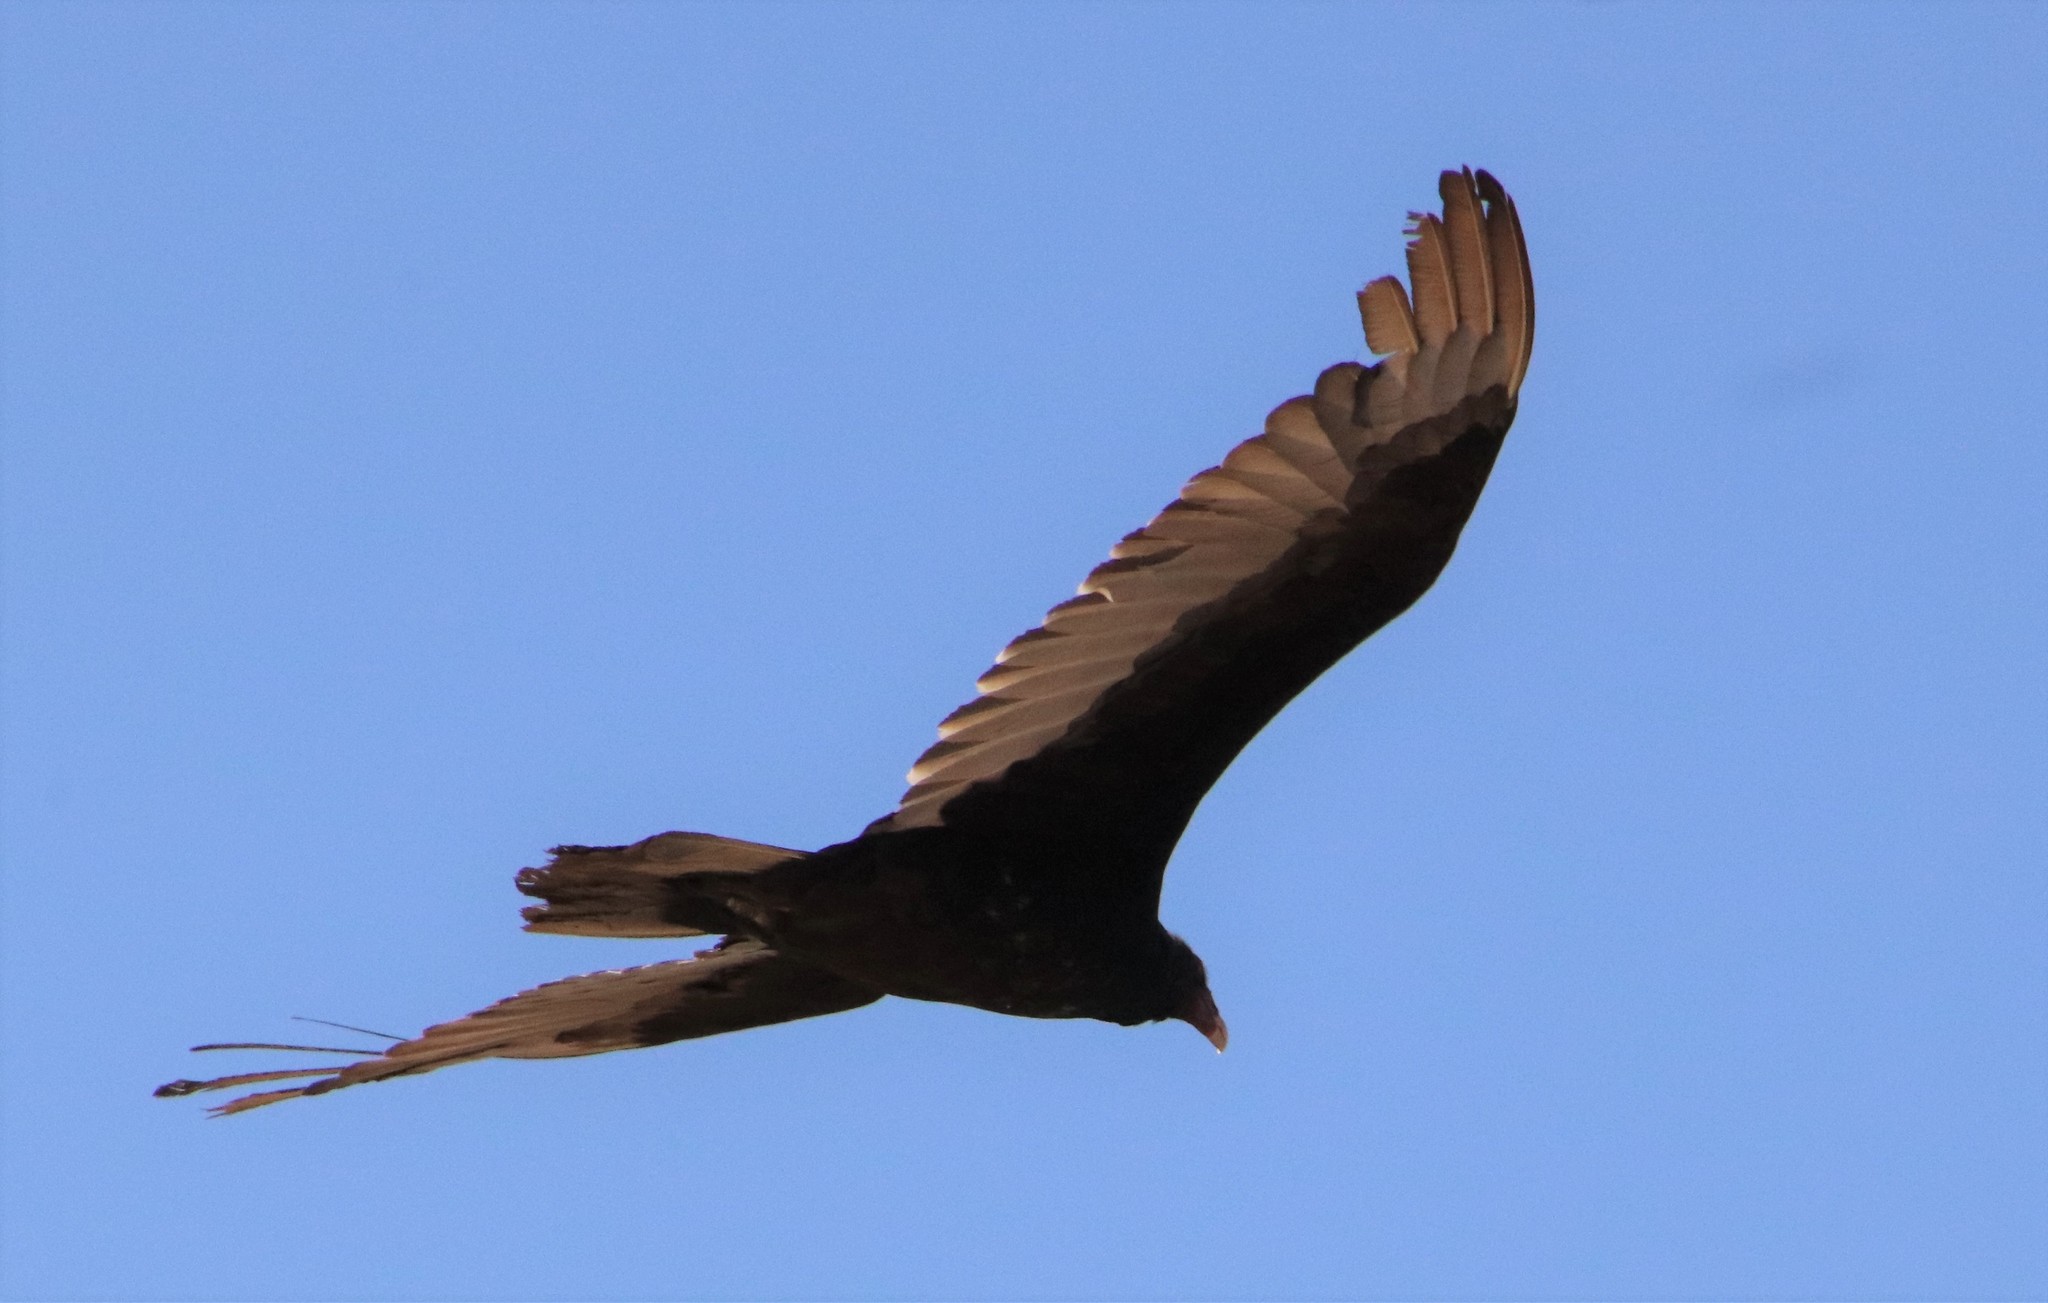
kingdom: Animalia
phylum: Chordata
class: Aves
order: Accipitriformes
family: Cathartidae
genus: Cathartes
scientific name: Cathartes aura
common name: Turkey vulture
